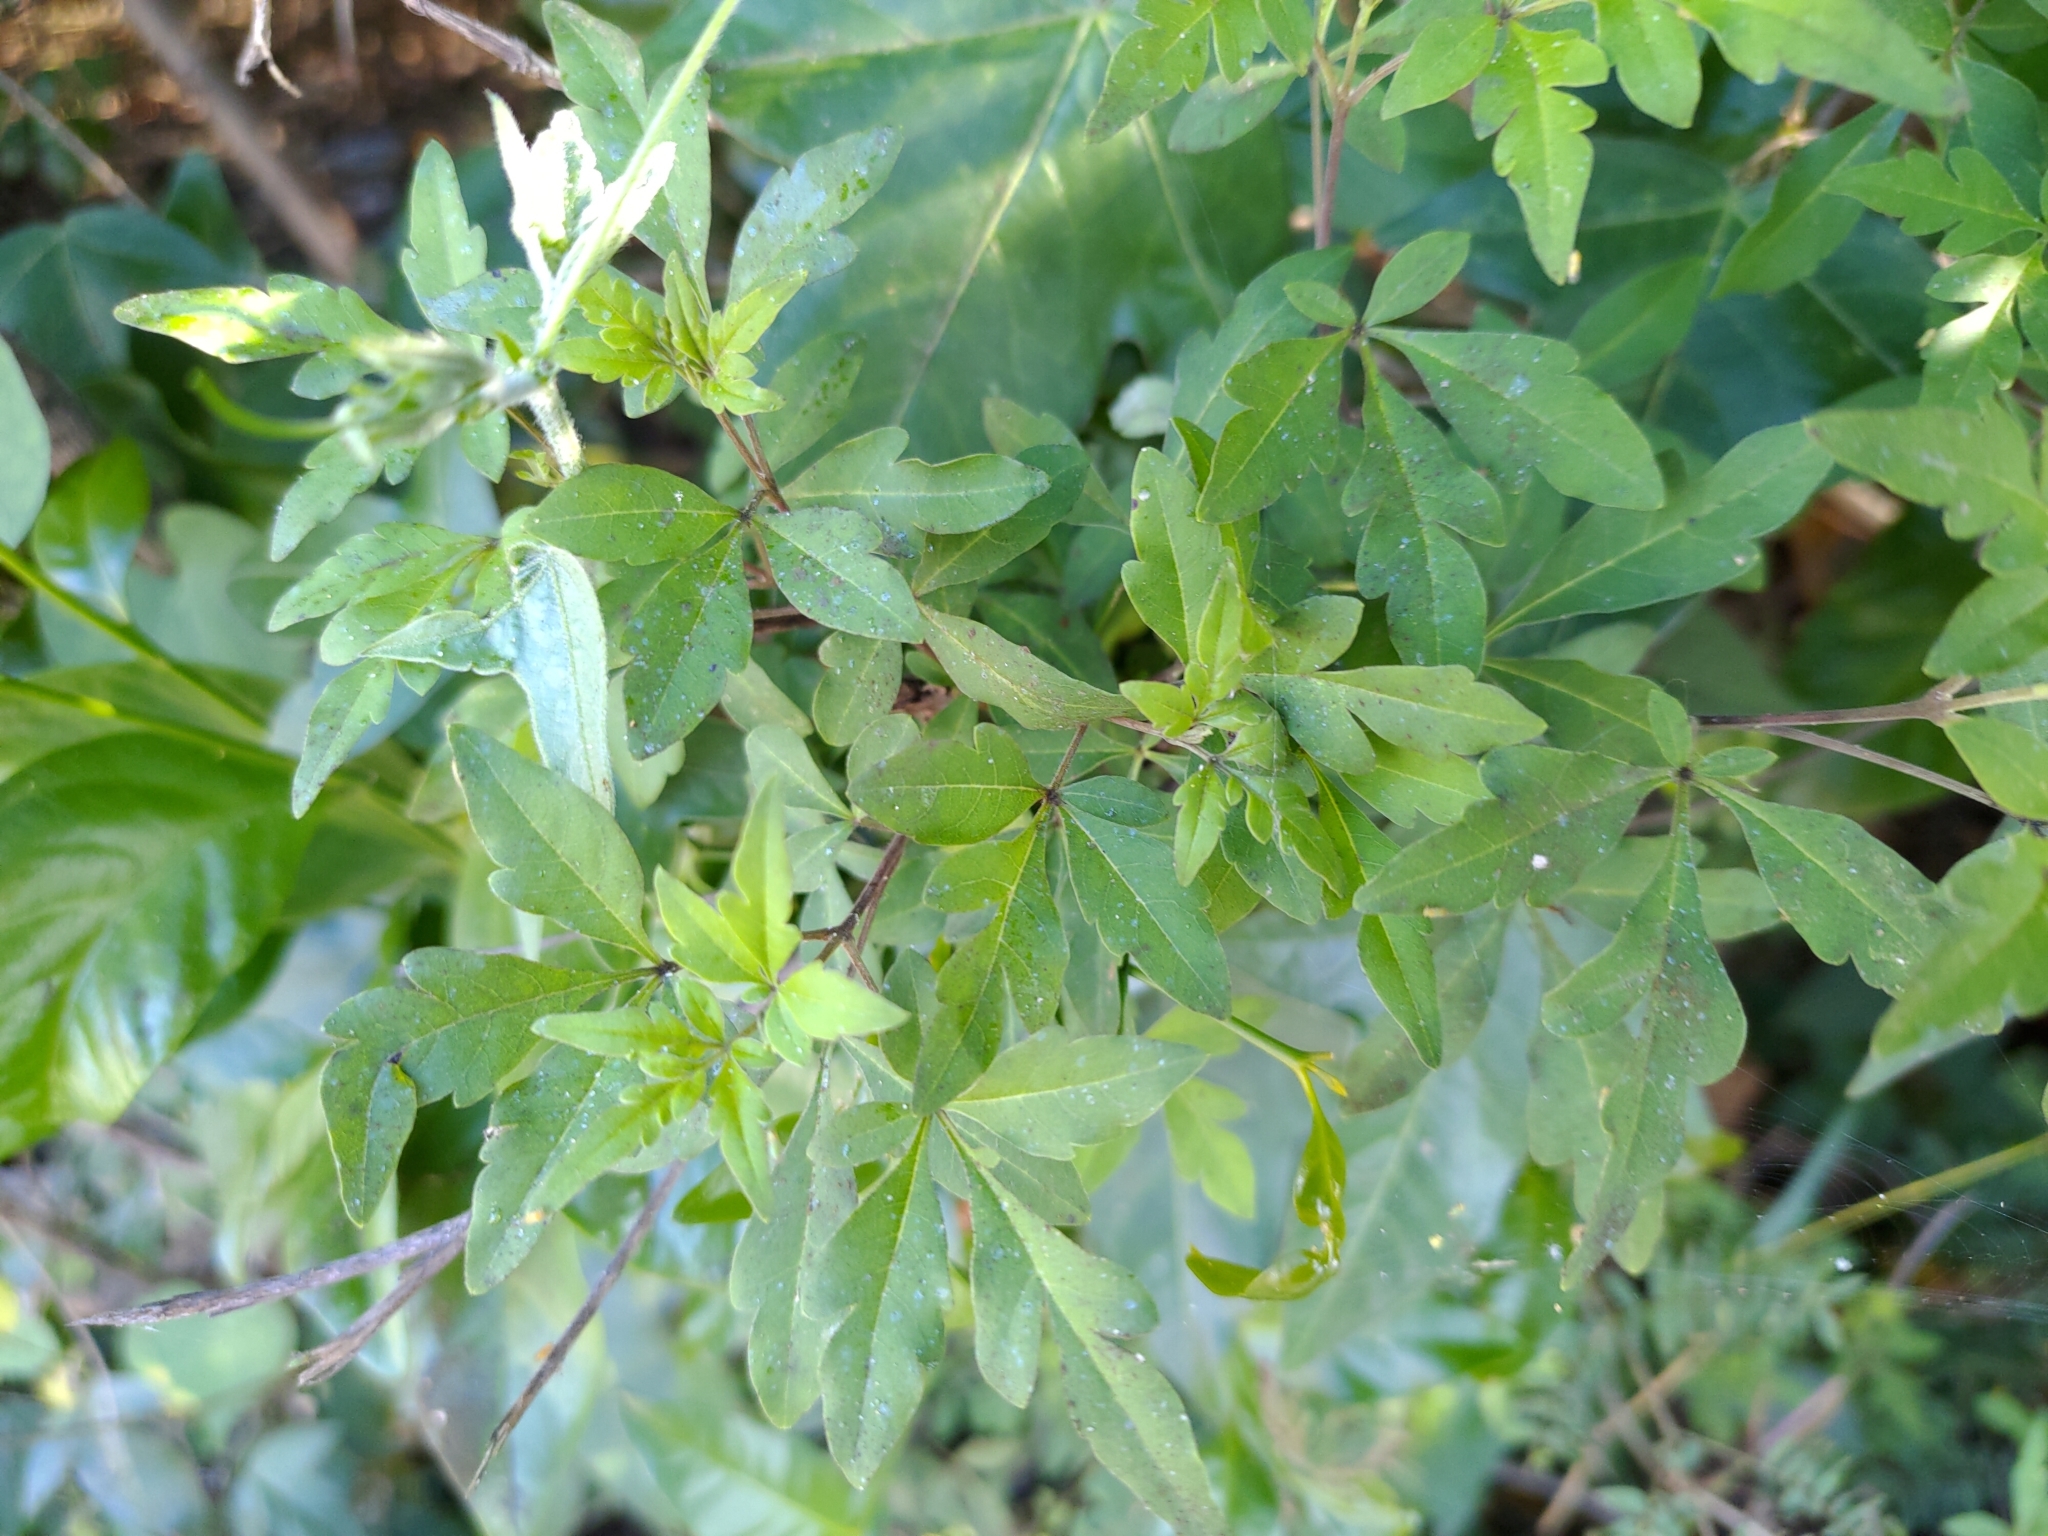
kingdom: Plantae
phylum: Tracheophyta
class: Magnoliopsida
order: Lamiales
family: Lamiaceae
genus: Vitex
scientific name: Vitex negundo
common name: Chinese chastetree
